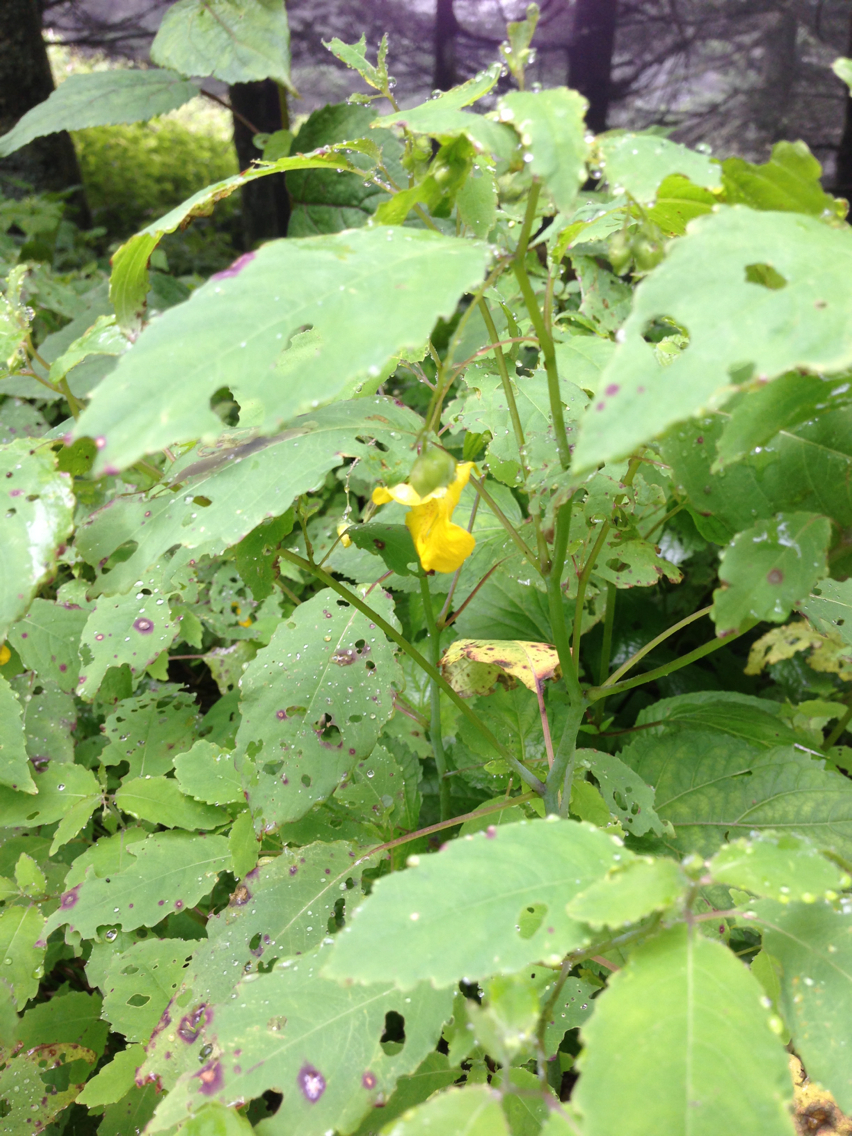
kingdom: Plantae
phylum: Tracheophyta
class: Magnoliopsida
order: Ericales
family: Balsaminaceae
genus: Impatiens
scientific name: Impatiens pallida
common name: Pale snapweed
